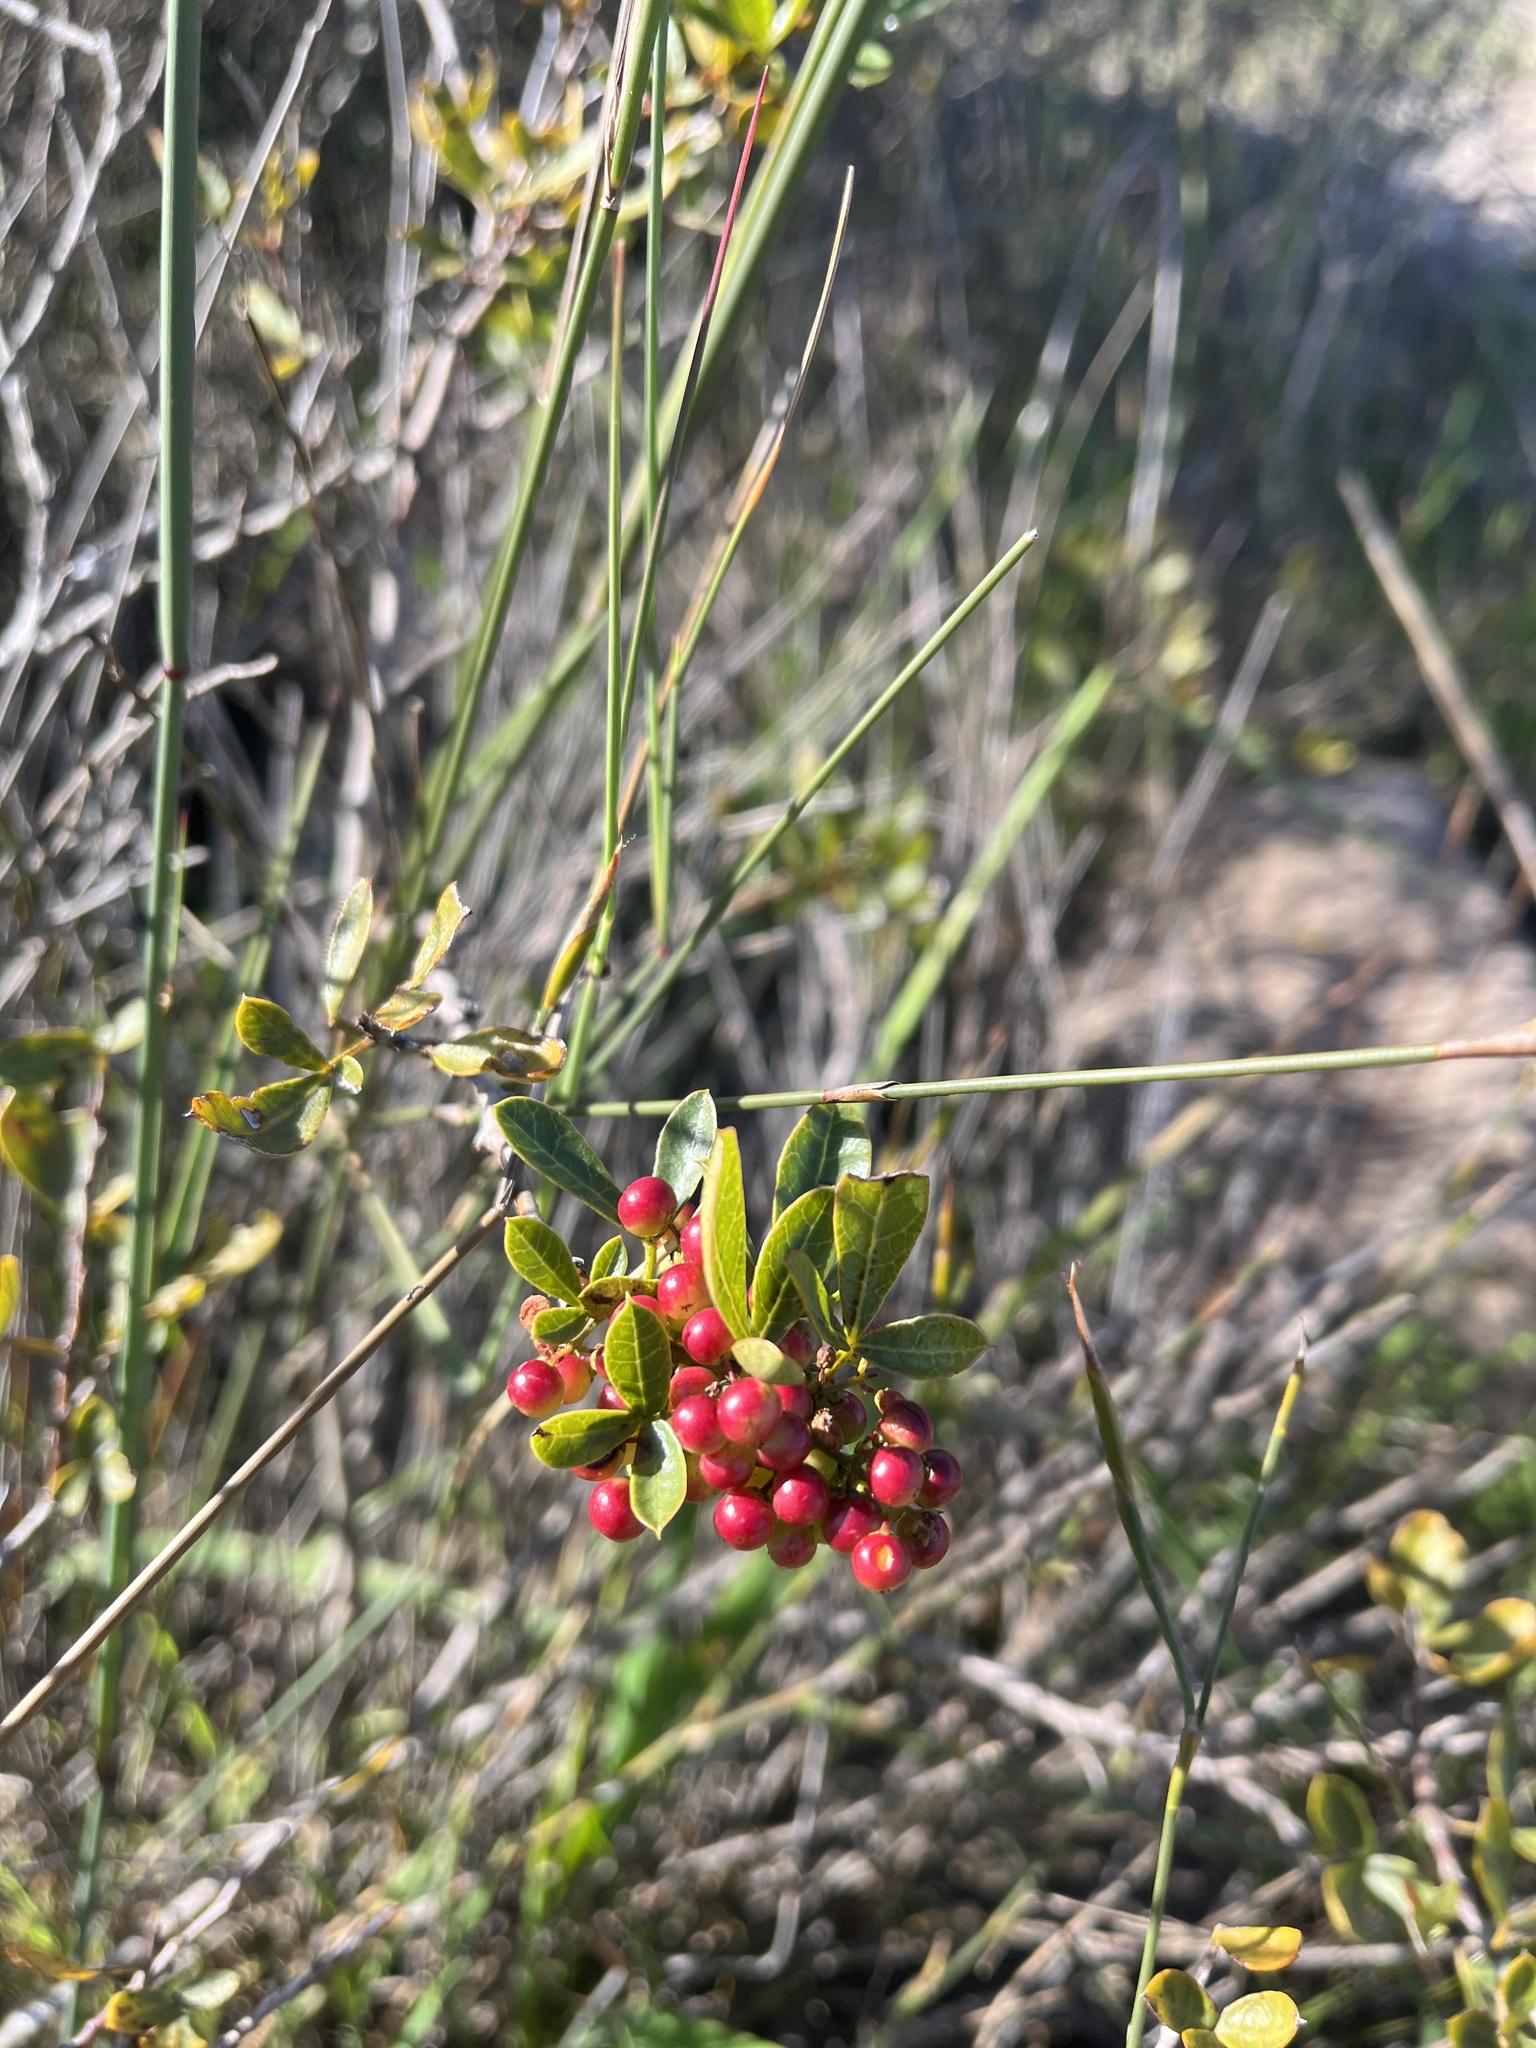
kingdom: Plantae
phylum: Tracheophyta
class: Magnoliopsida
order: Sapindales
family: Anacardiaceae
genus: Searsia
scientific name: Searsia laevigata
